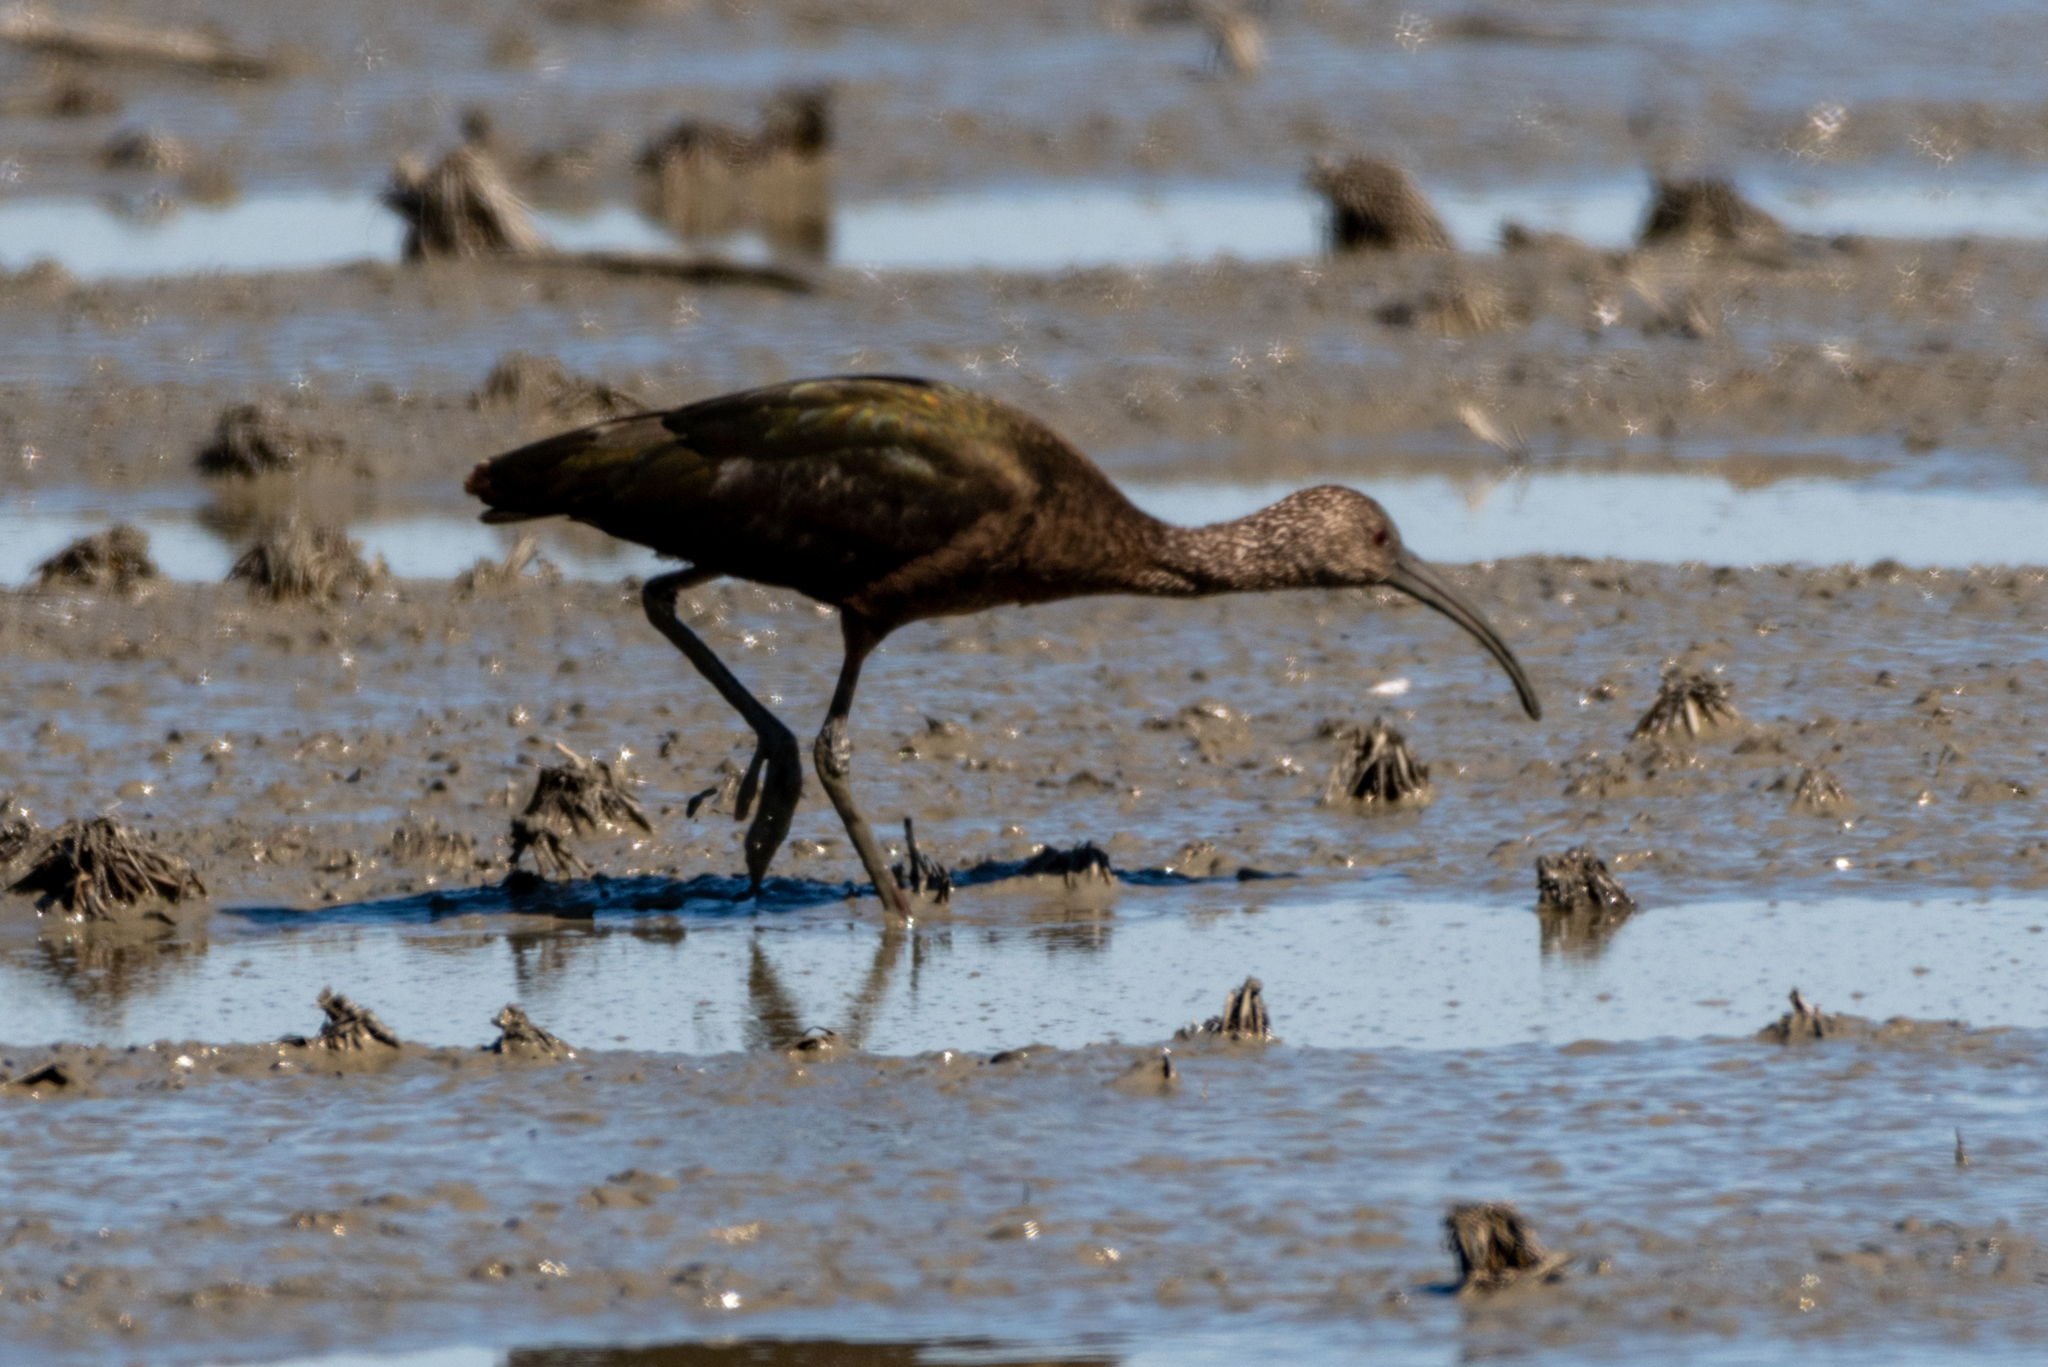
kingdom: Animalia
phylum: Chordata
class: Aves
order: Pelecaniformes
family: Threskiornithidae
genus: Plegadis
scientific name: Plegadis chihi
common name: White-faced ibis
